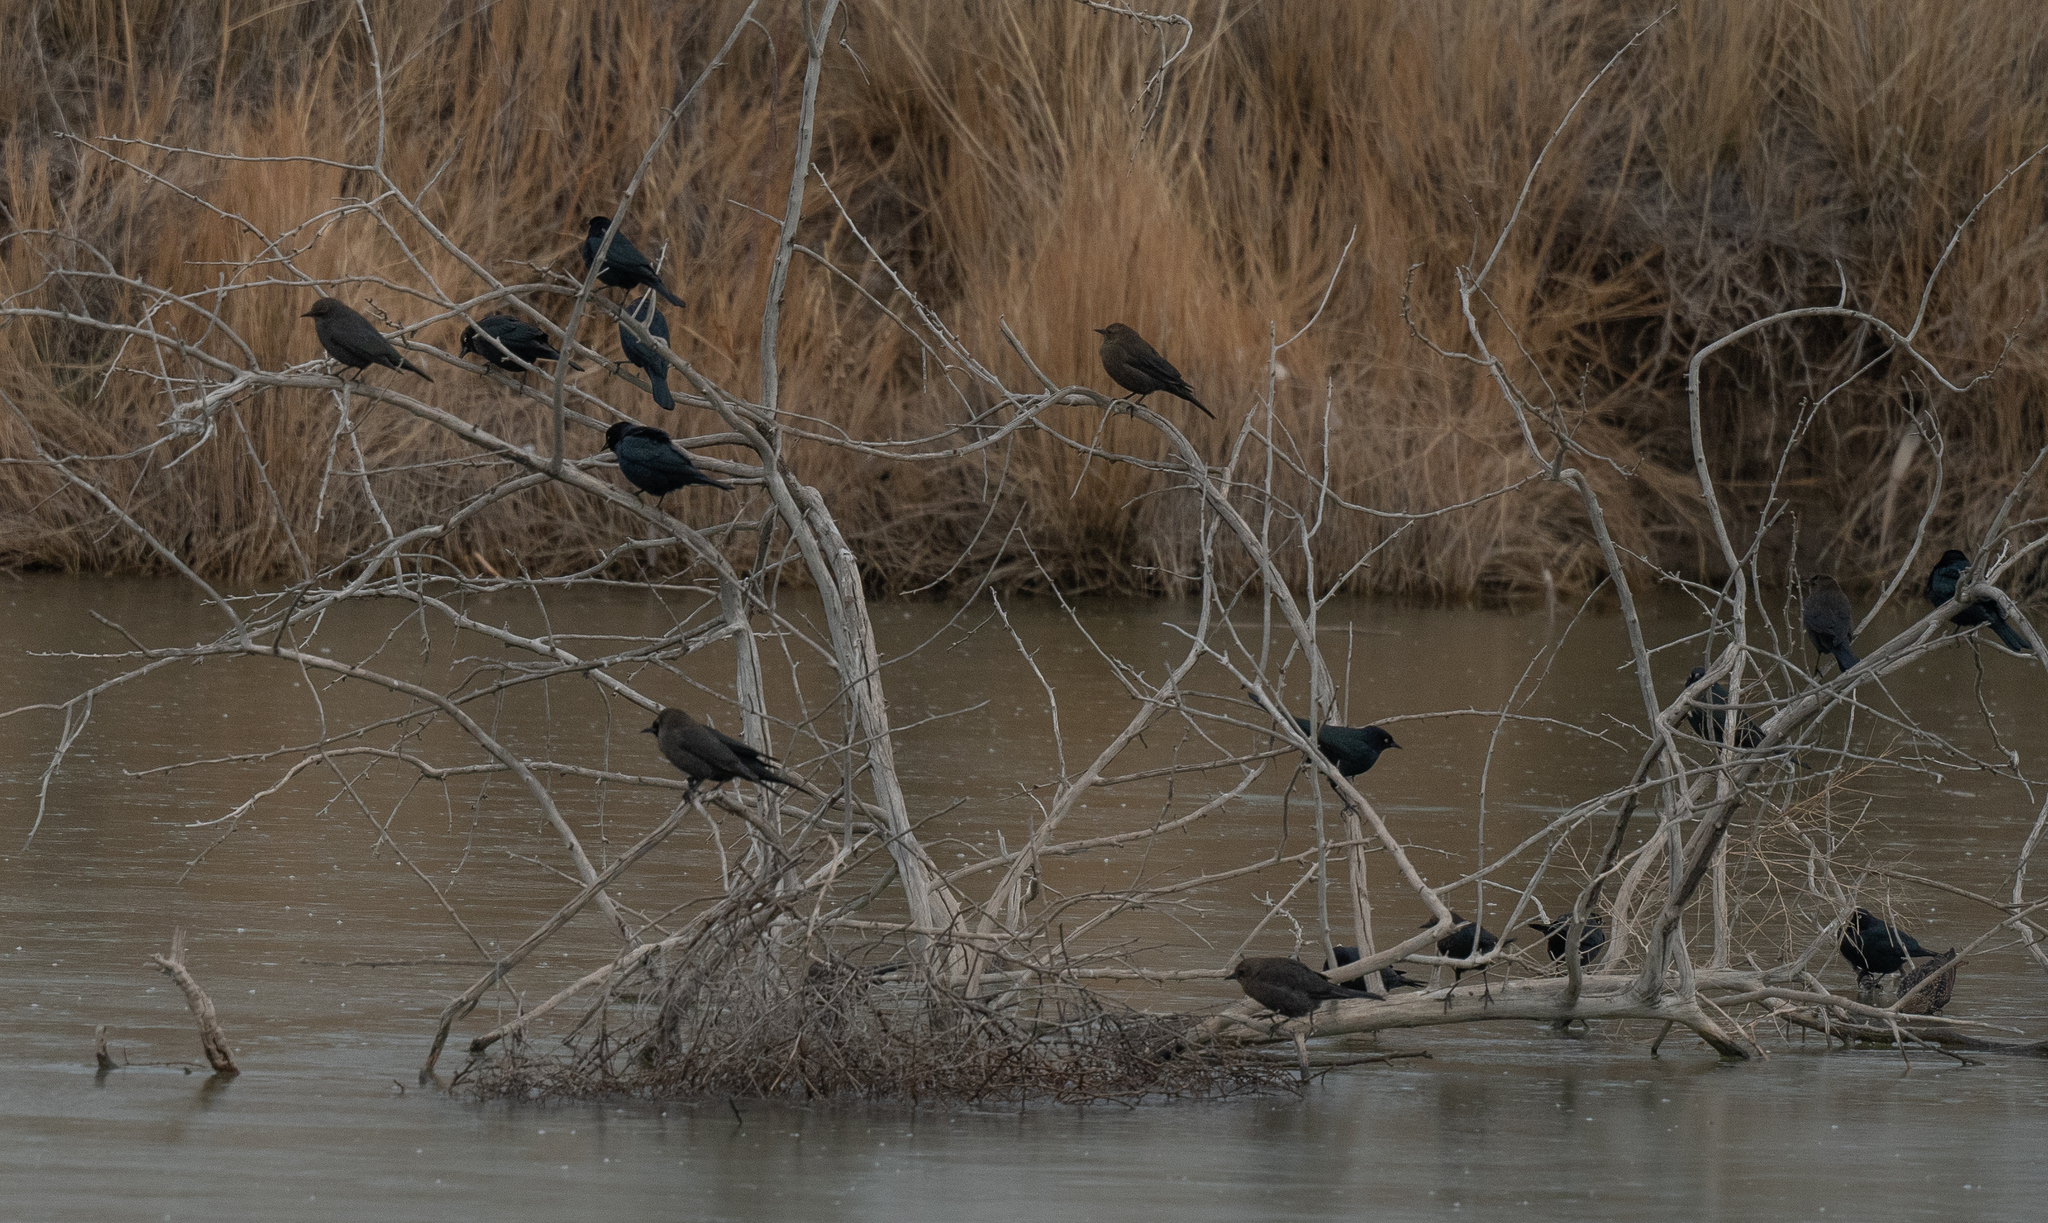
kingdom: Animalia
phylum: Chordata
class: Aves
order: Passeriformes
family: Icteridae
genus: Euphagus
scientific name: Euphagus cyanocephalus
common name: Brewer's blackbird
